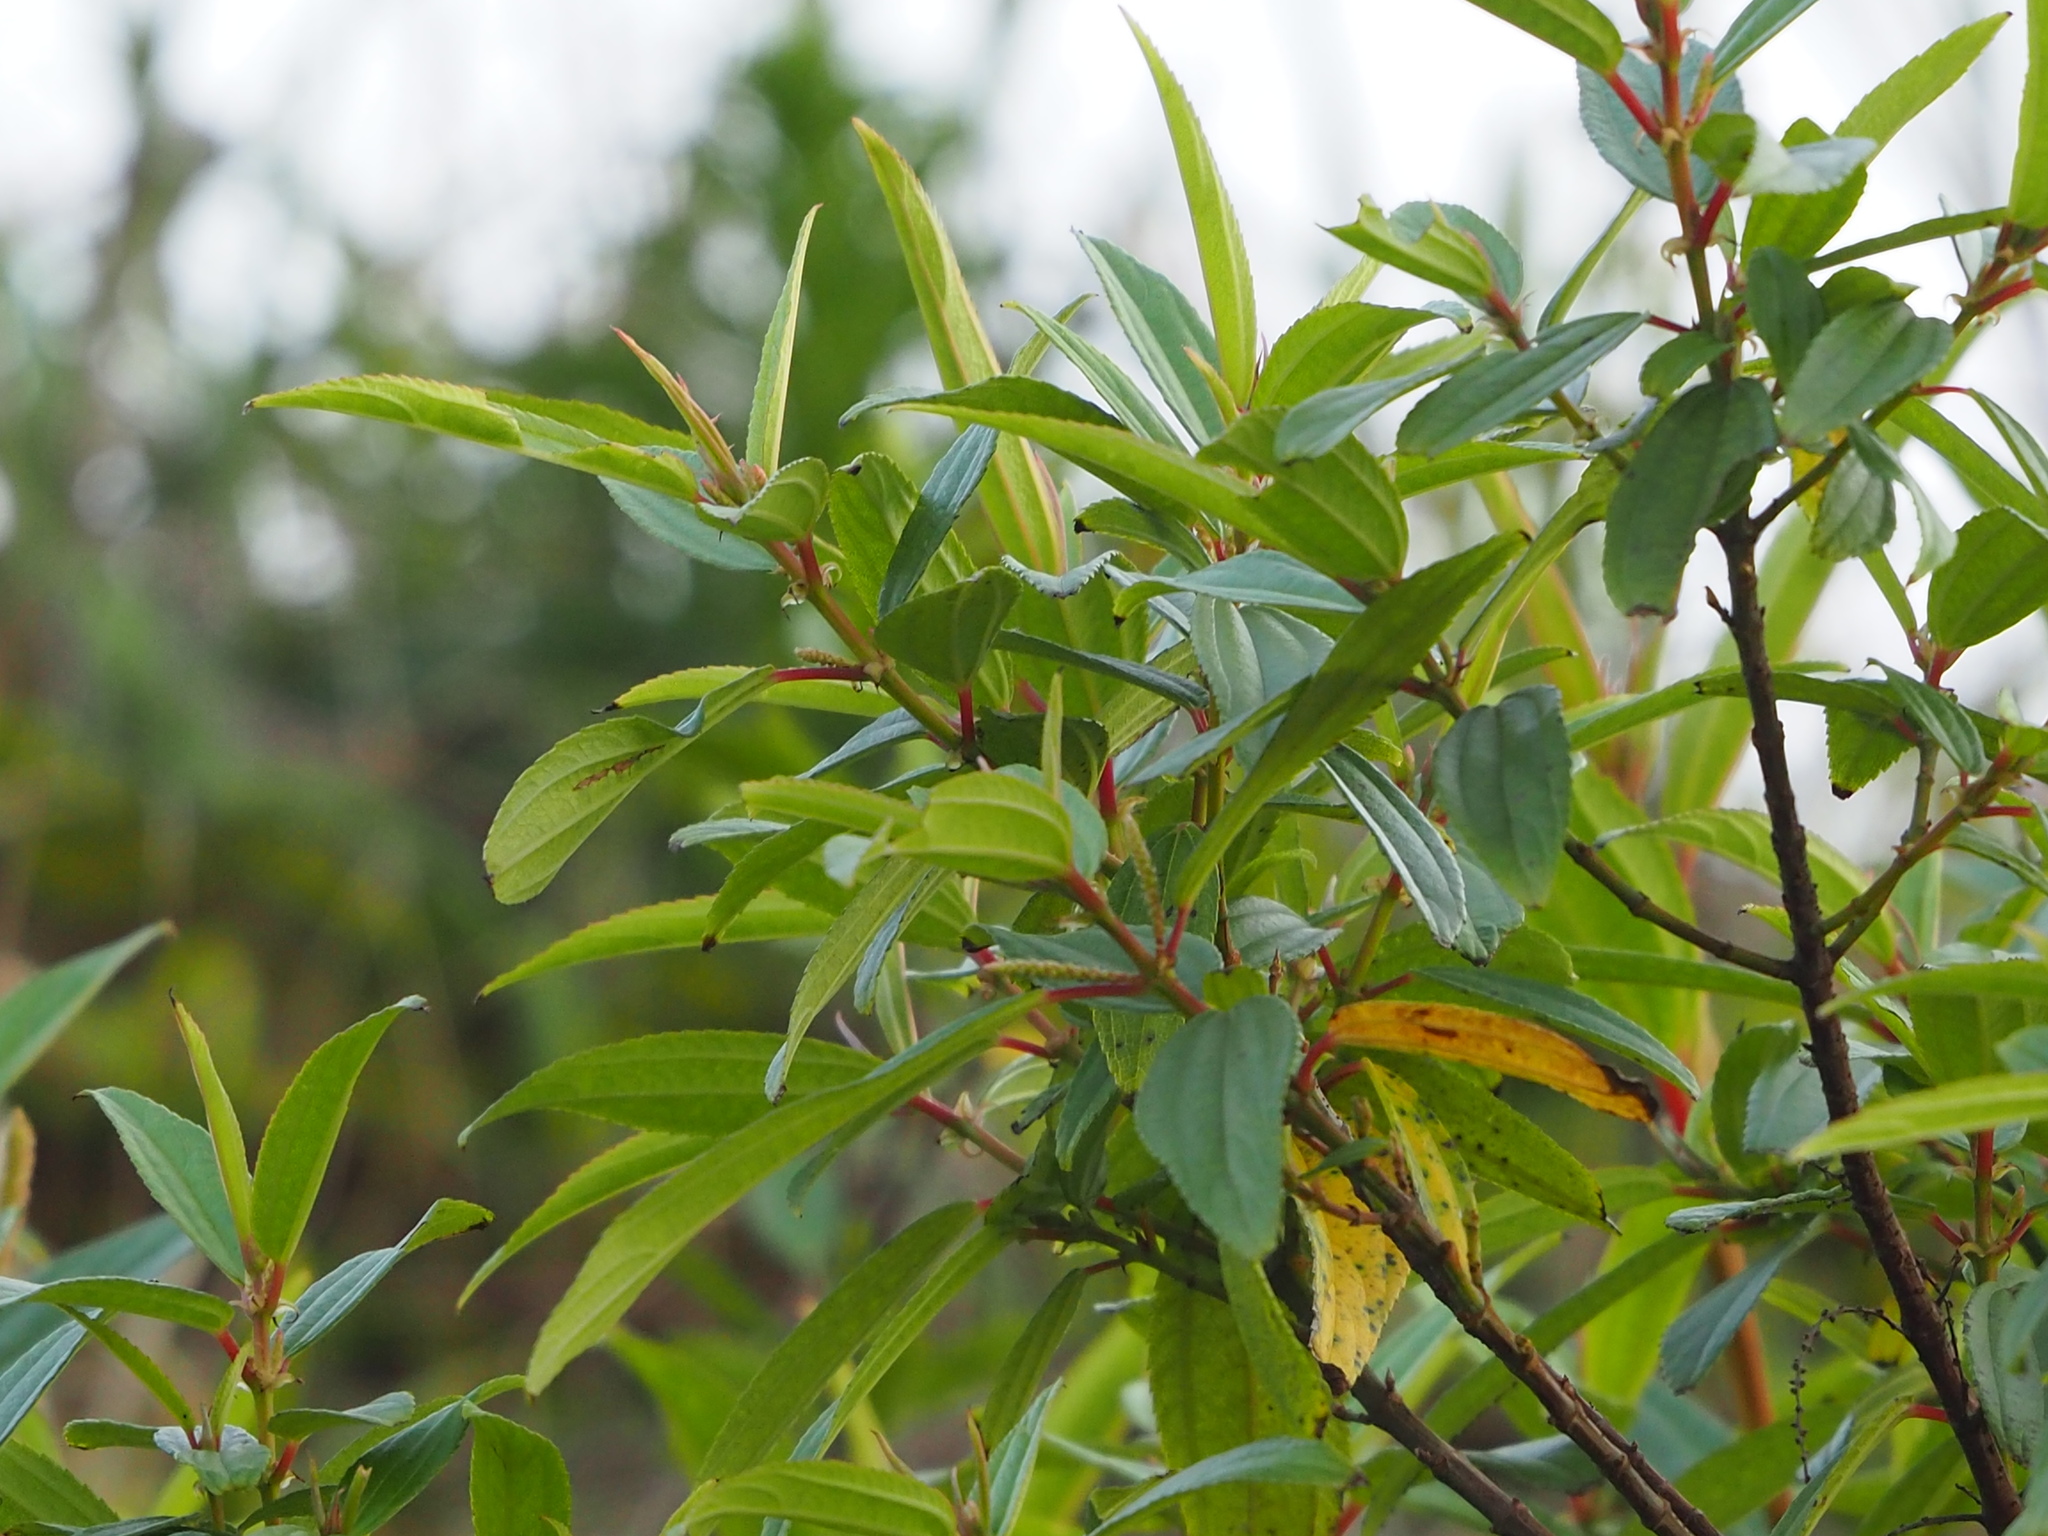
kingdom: Plantae
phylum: Tracheophyta
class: Magnoliopsida
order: Rosales
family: Urticaceae
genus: Boehmeria
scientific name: Boehmeria densiflora
